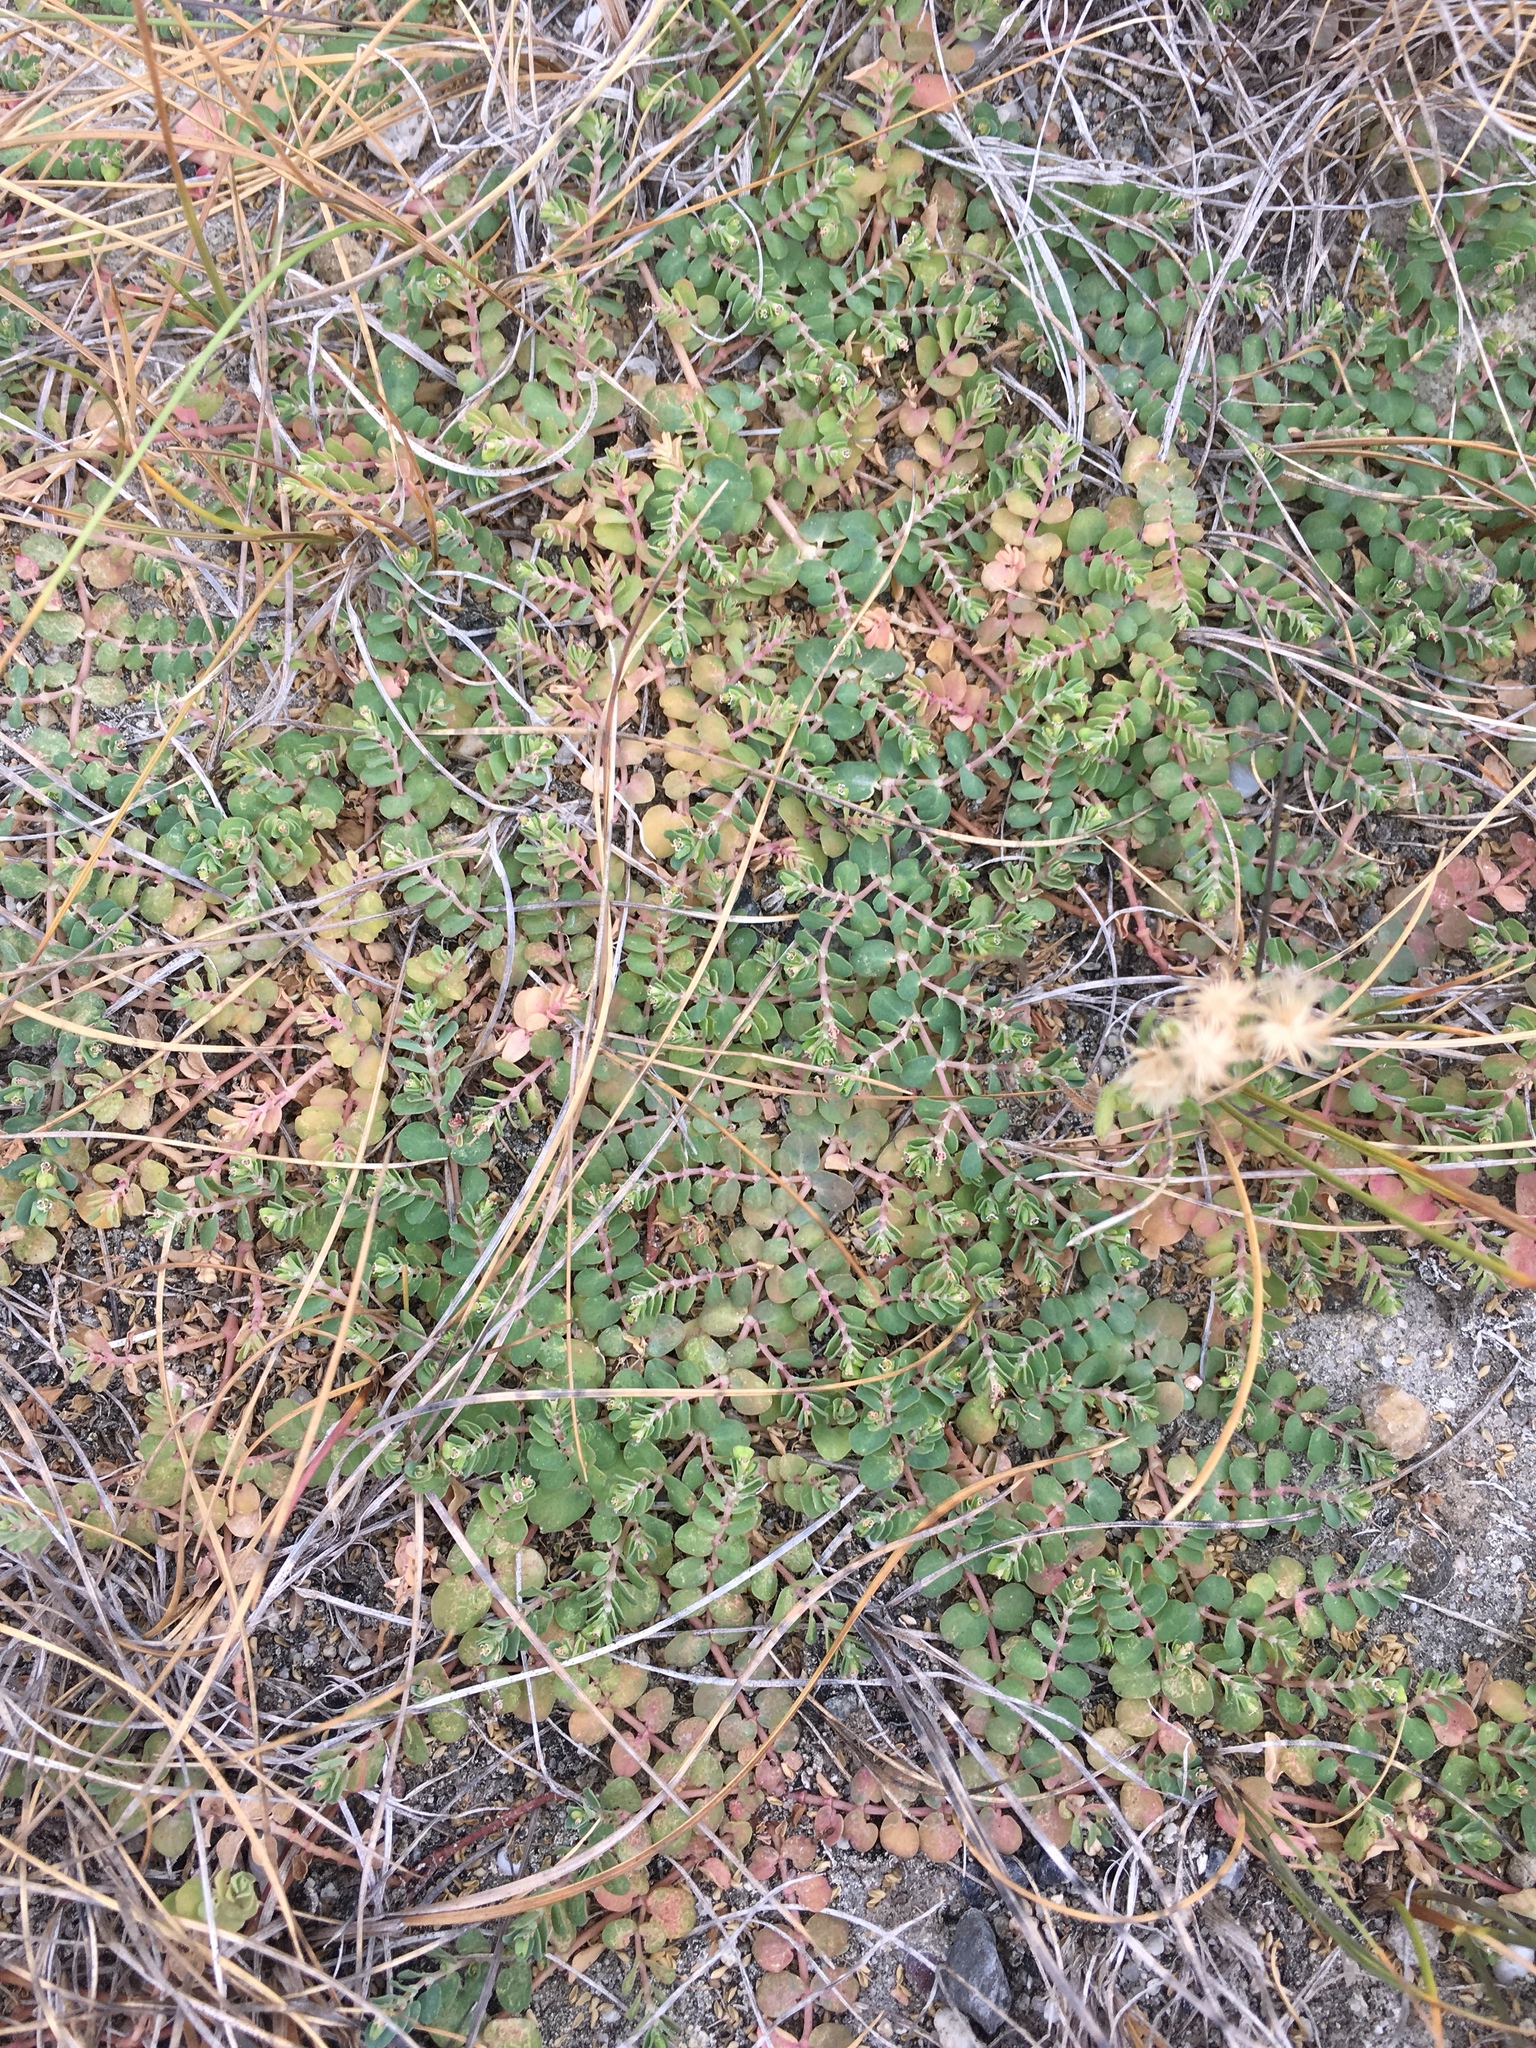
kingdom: Plantae
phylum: Tracheophyta
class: Magnoliopsida
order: Malpighiales
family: Euphorbiaceae
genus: Euphorbia
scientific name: Euphorbia serpens
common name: Matted sandmat
